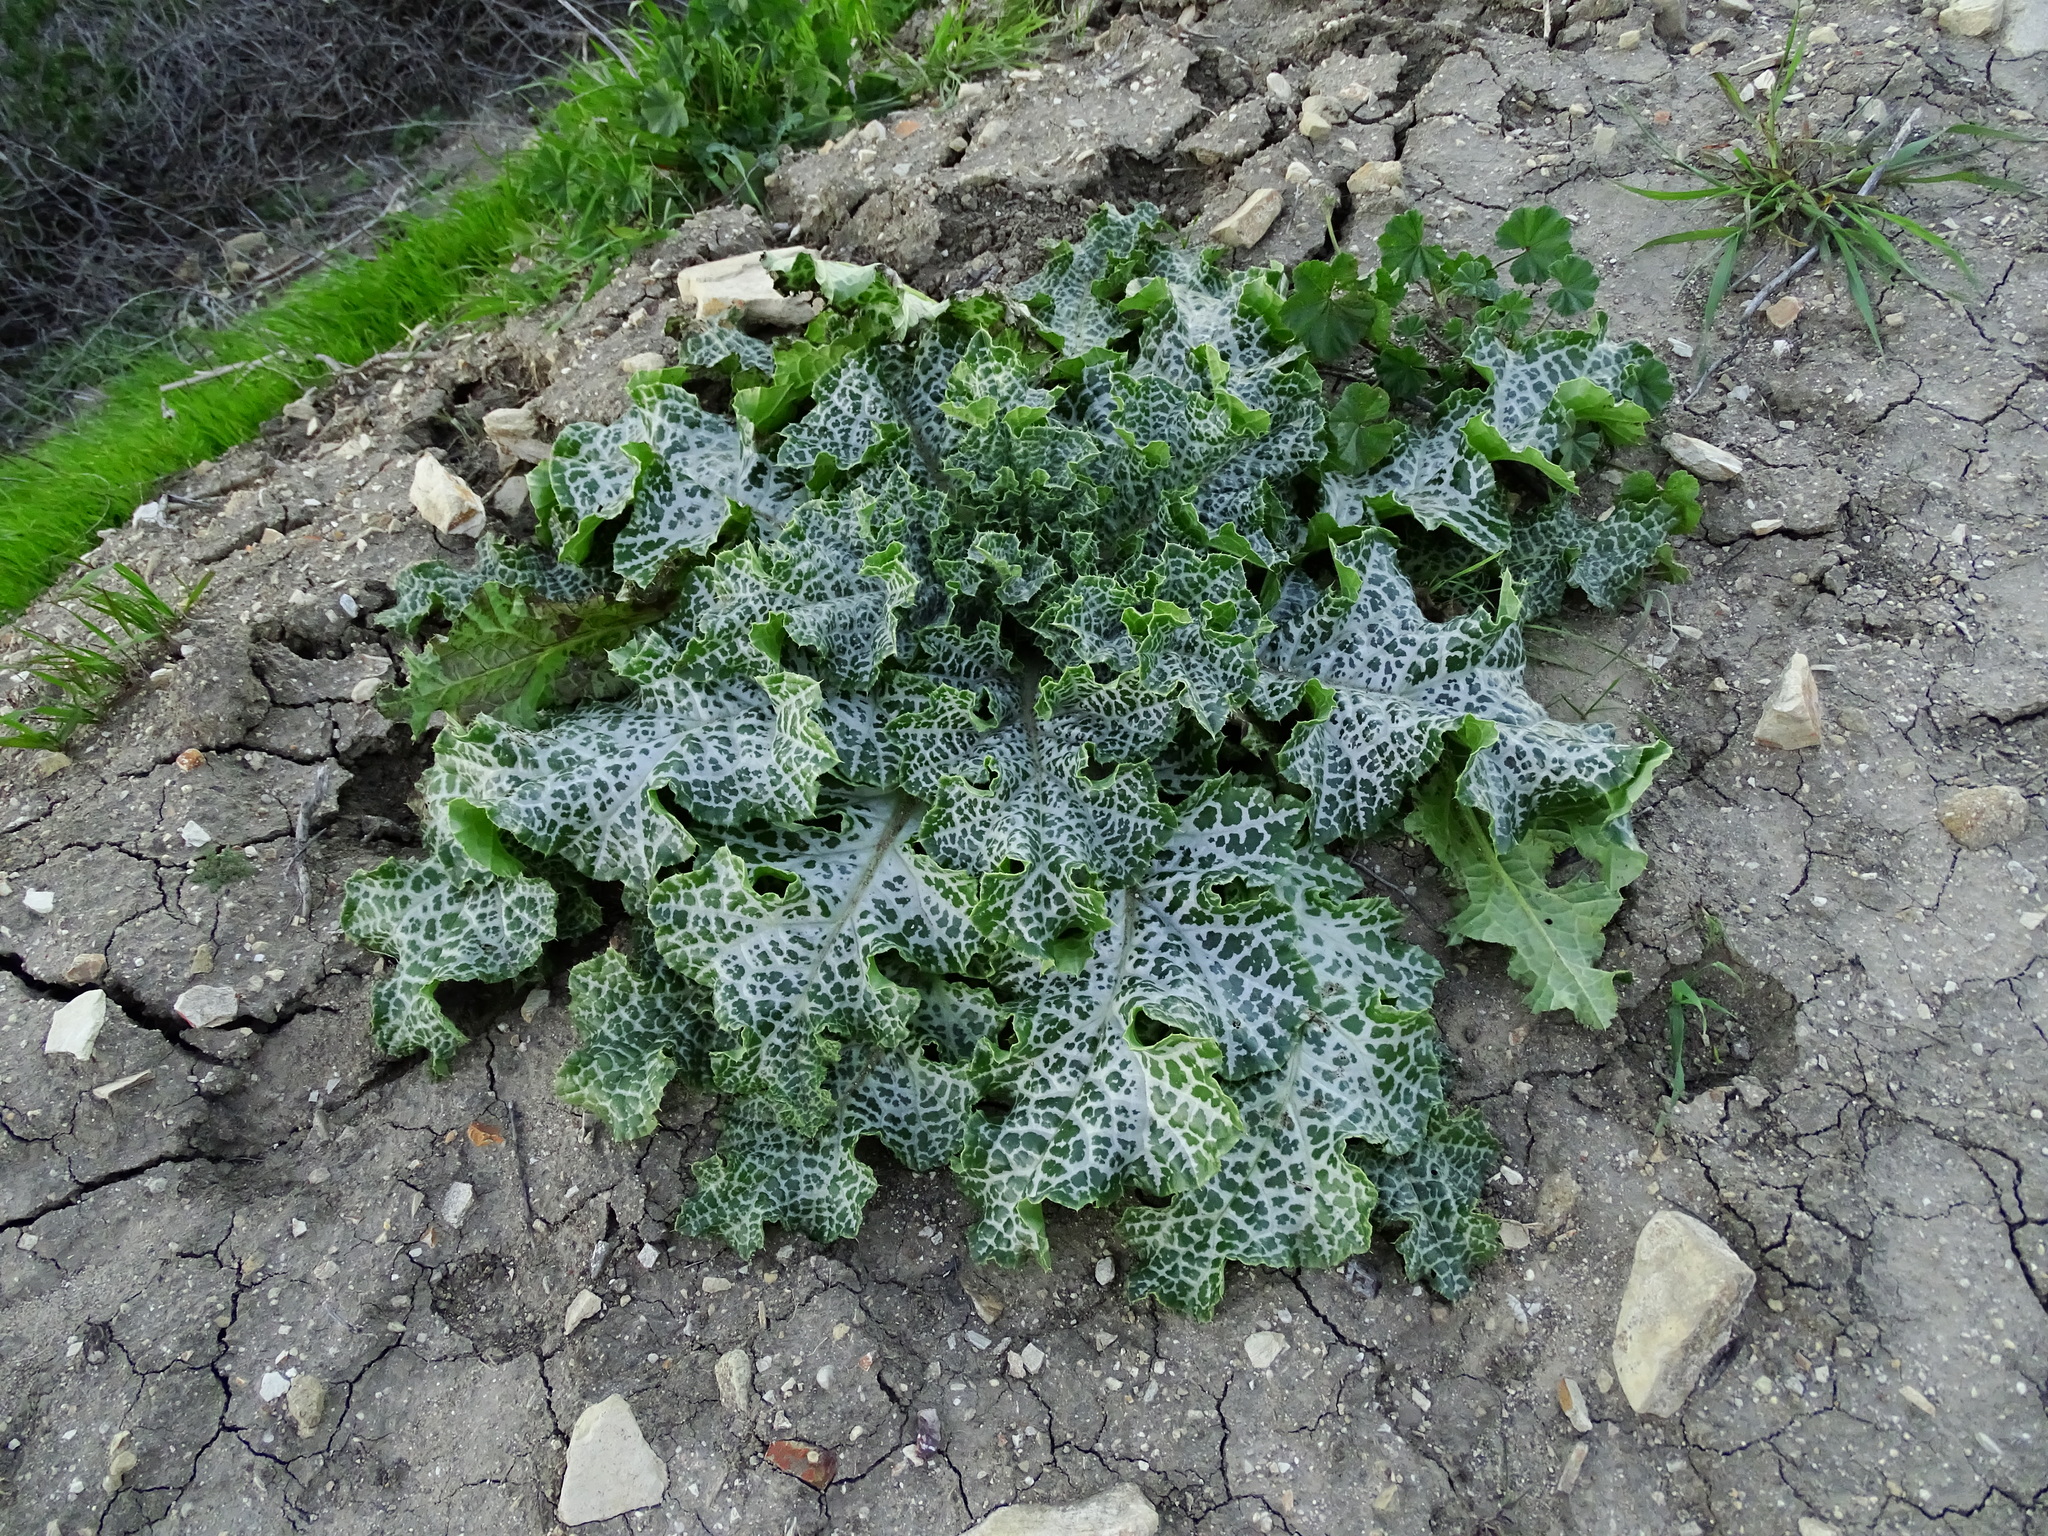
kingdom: Plantae
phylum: Tracheophyta
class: Magnoliopsida
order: Asterales
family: Asteraceae
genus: Silybum
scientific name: Silybum marianum
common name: Milk thistle
